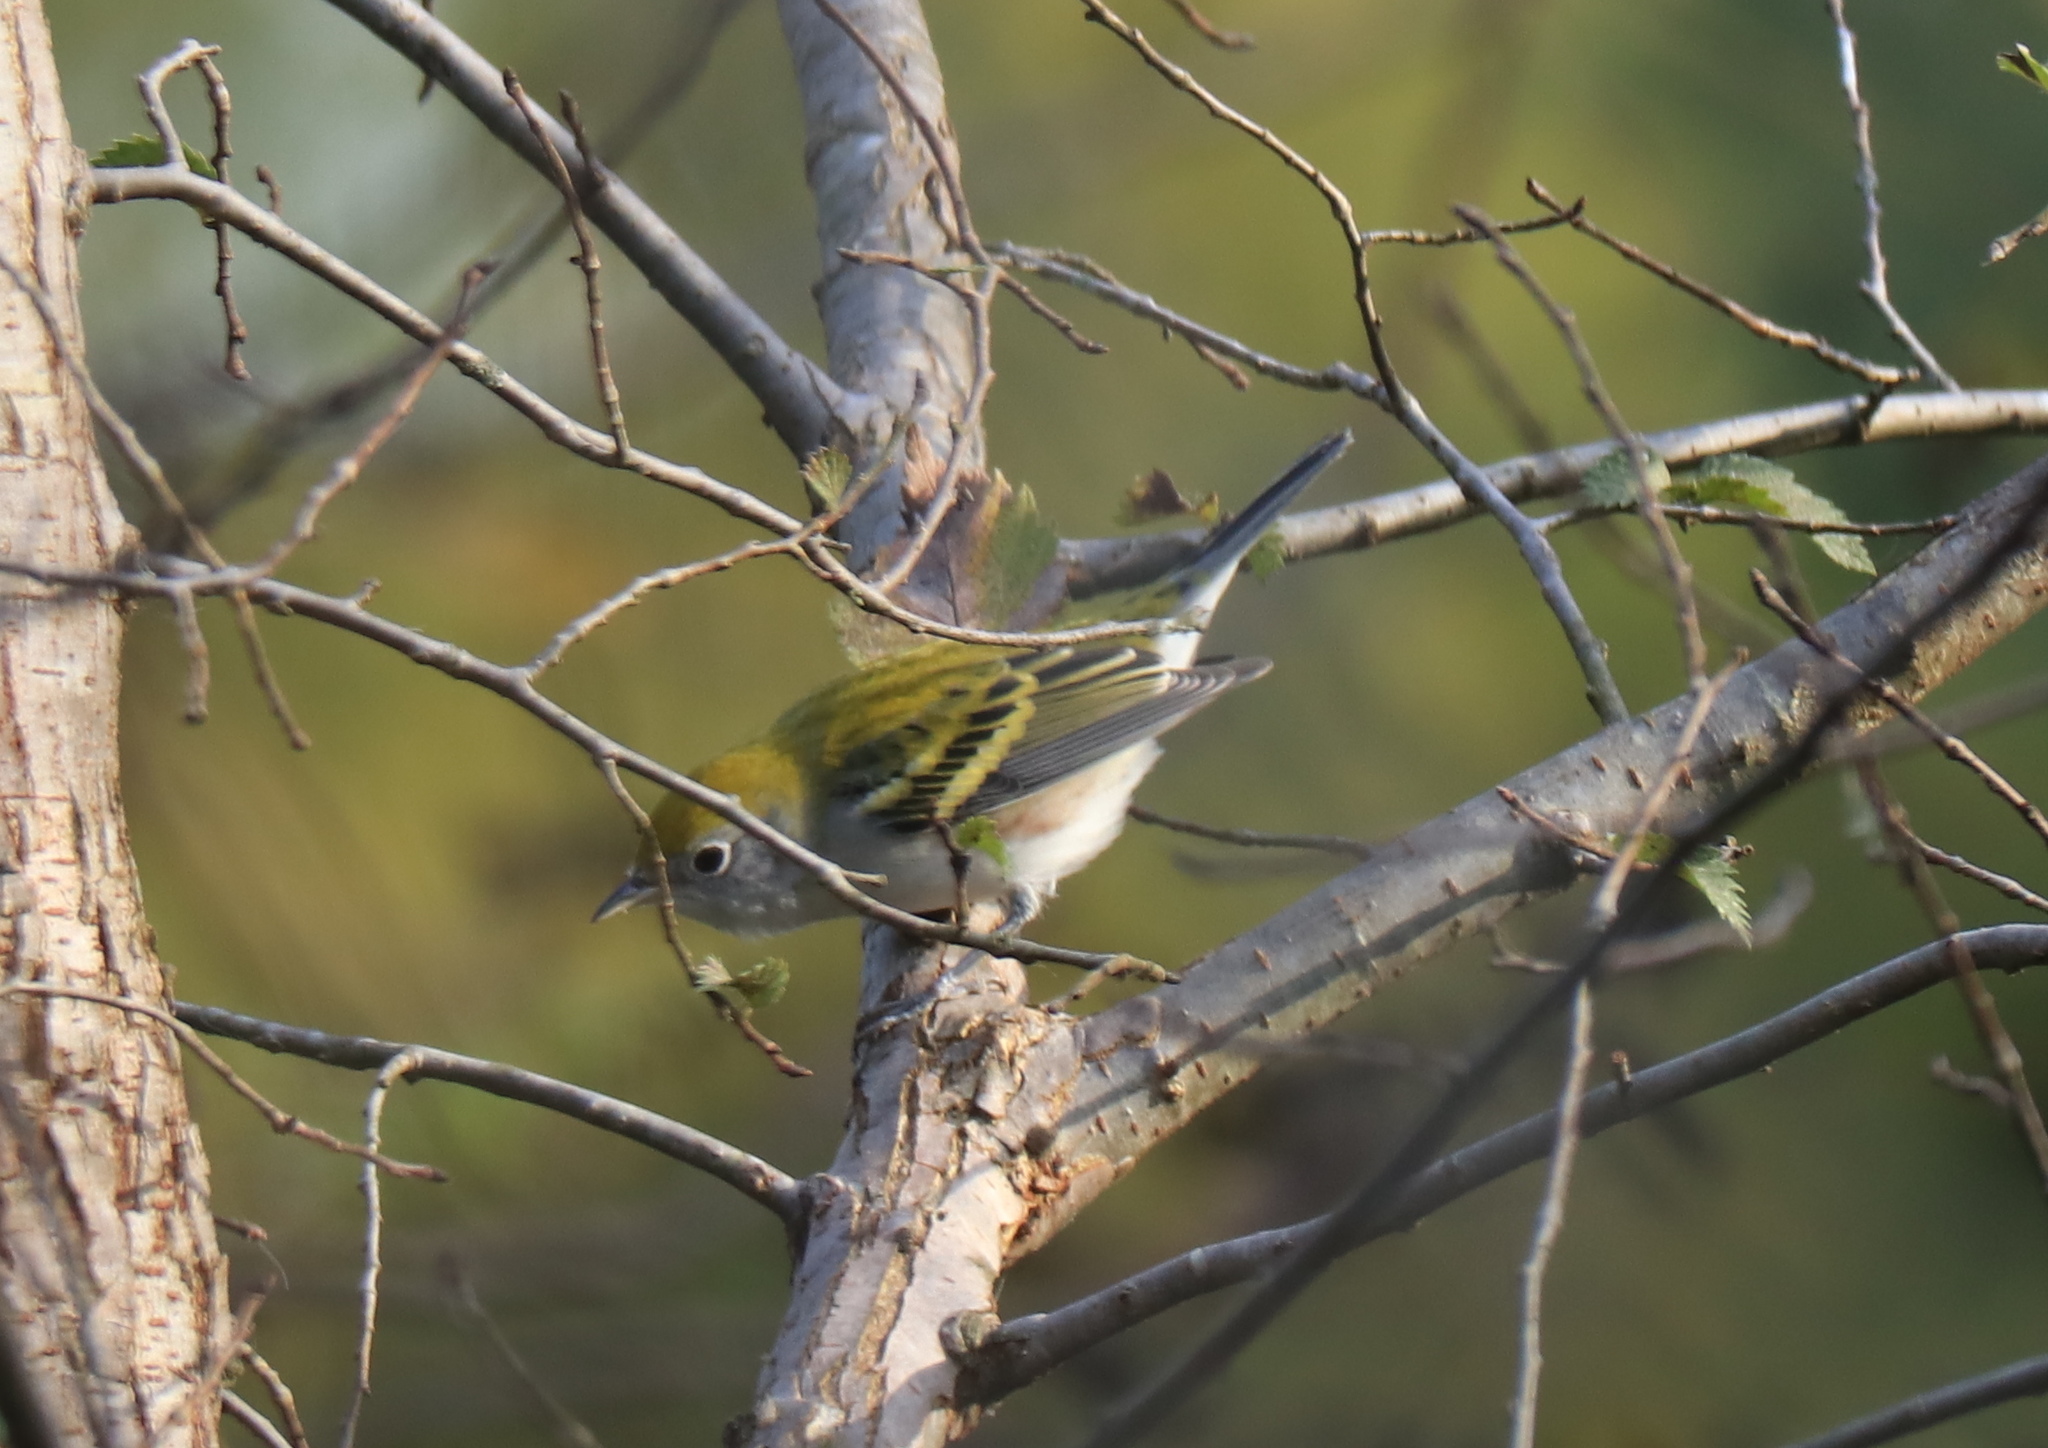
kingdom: Animalia
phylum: Chordata
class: Aves
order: Passeriformes
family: Parulidae
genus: Setophaga
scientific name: Setophaga pensylvanica
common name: Chestnut-sided warbler
